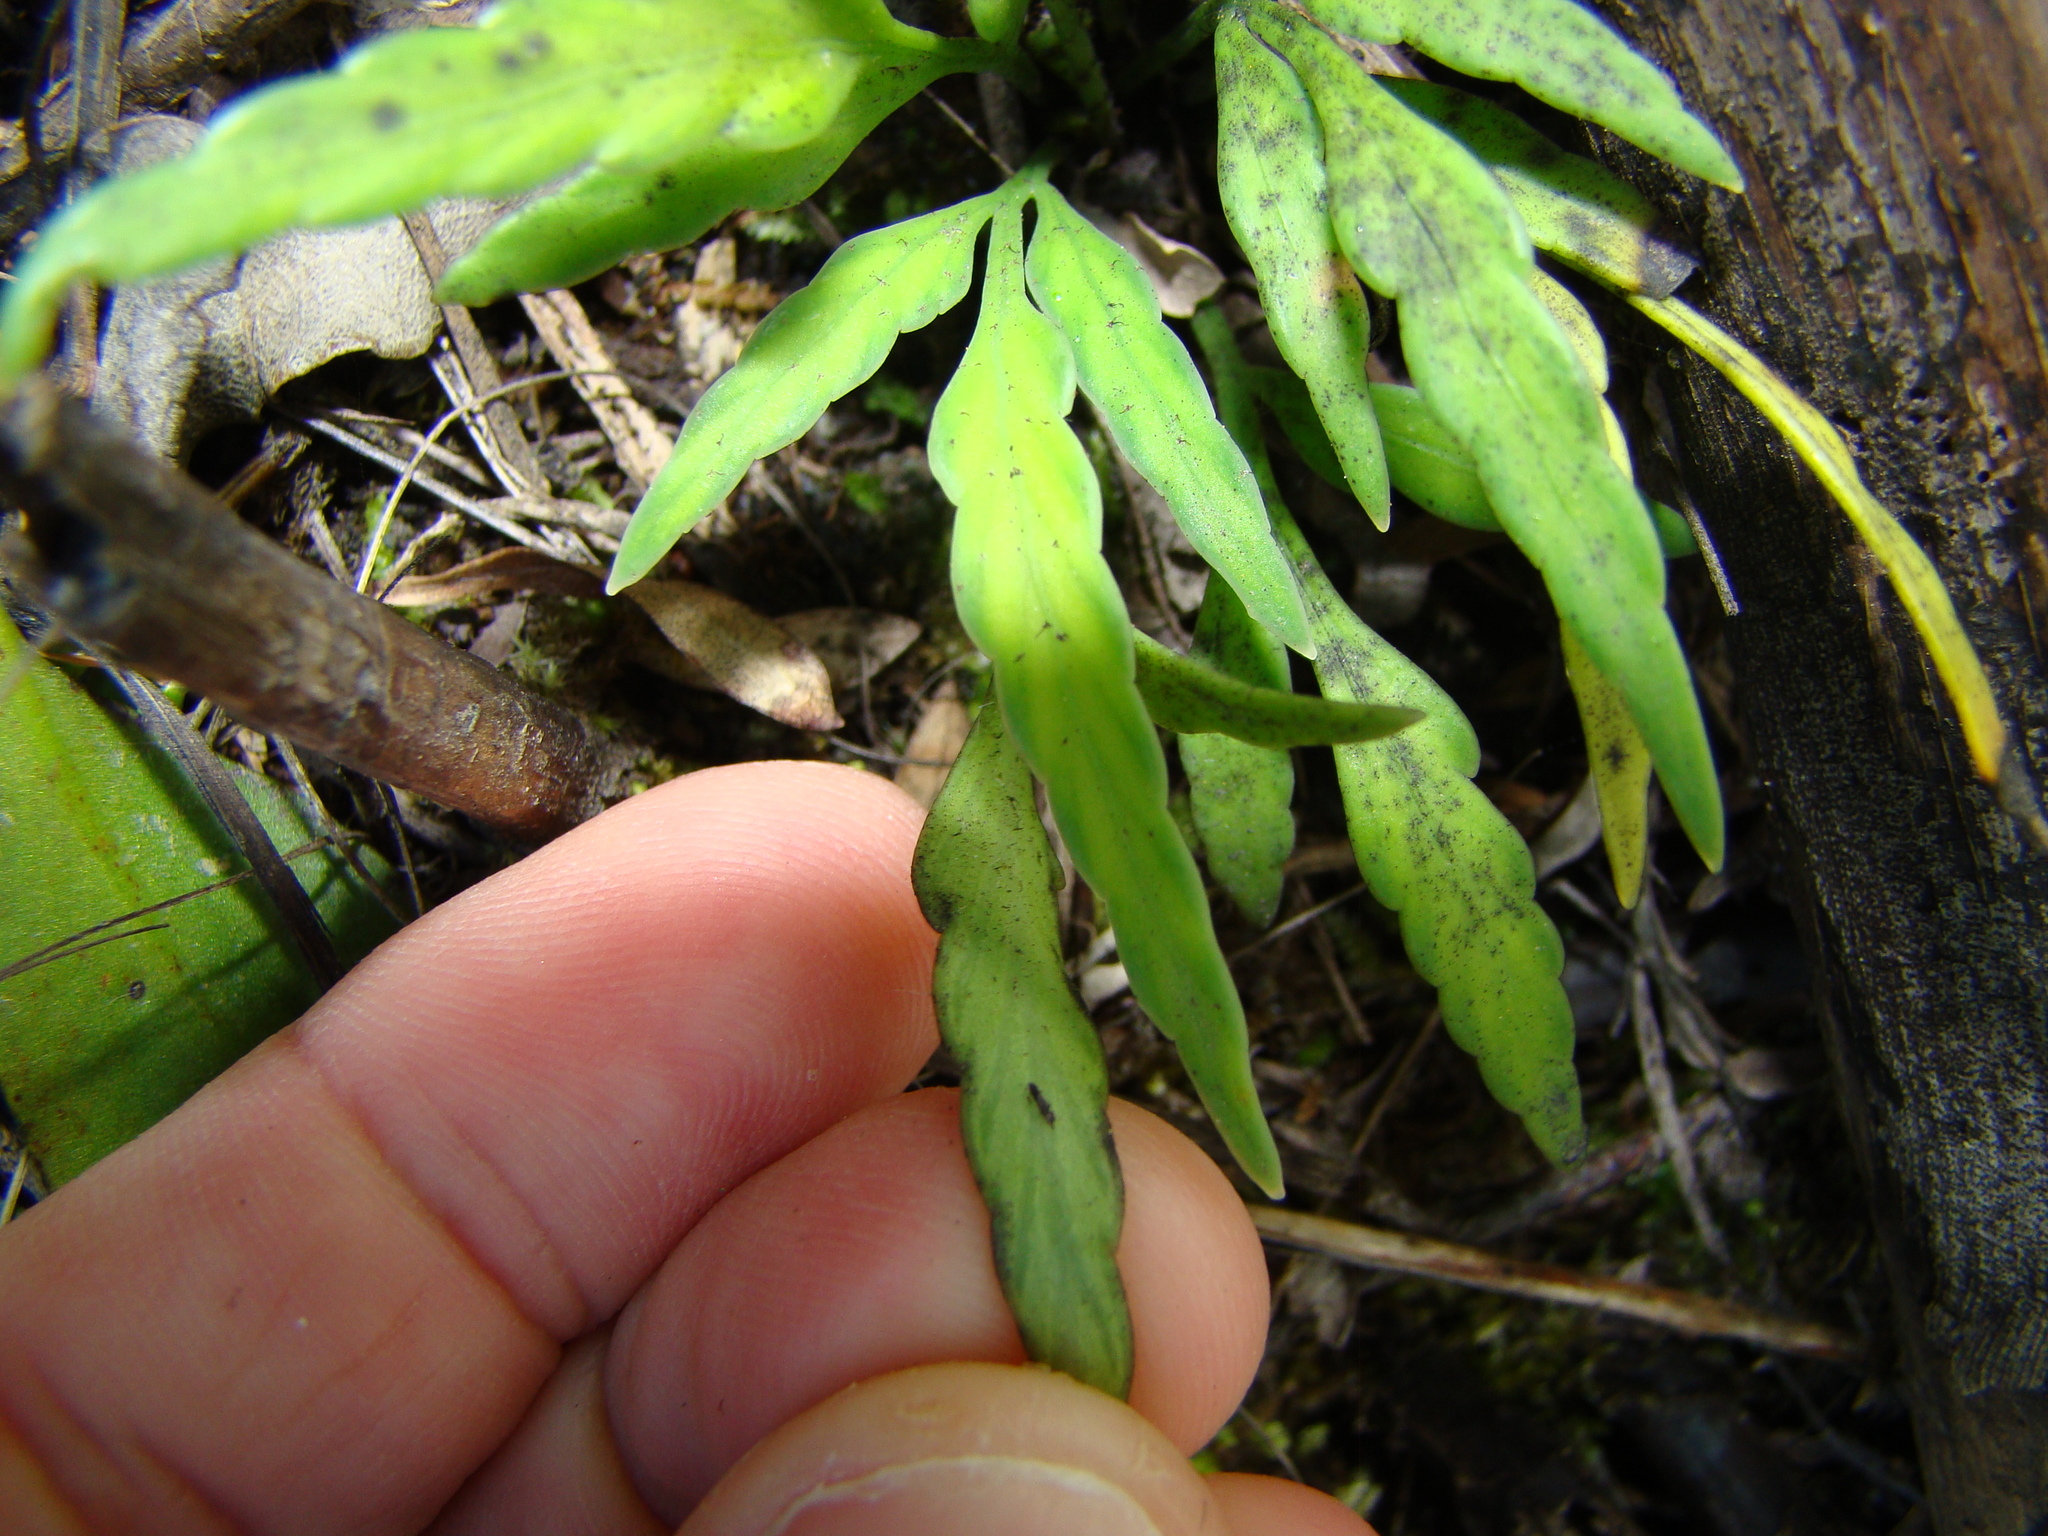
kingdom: Plantae
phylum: Tracheophyta
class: Polypodiopsida
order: Polypodiales
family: Aspleniaceae
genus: Asplenium
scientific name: Asplenium flaccidum
